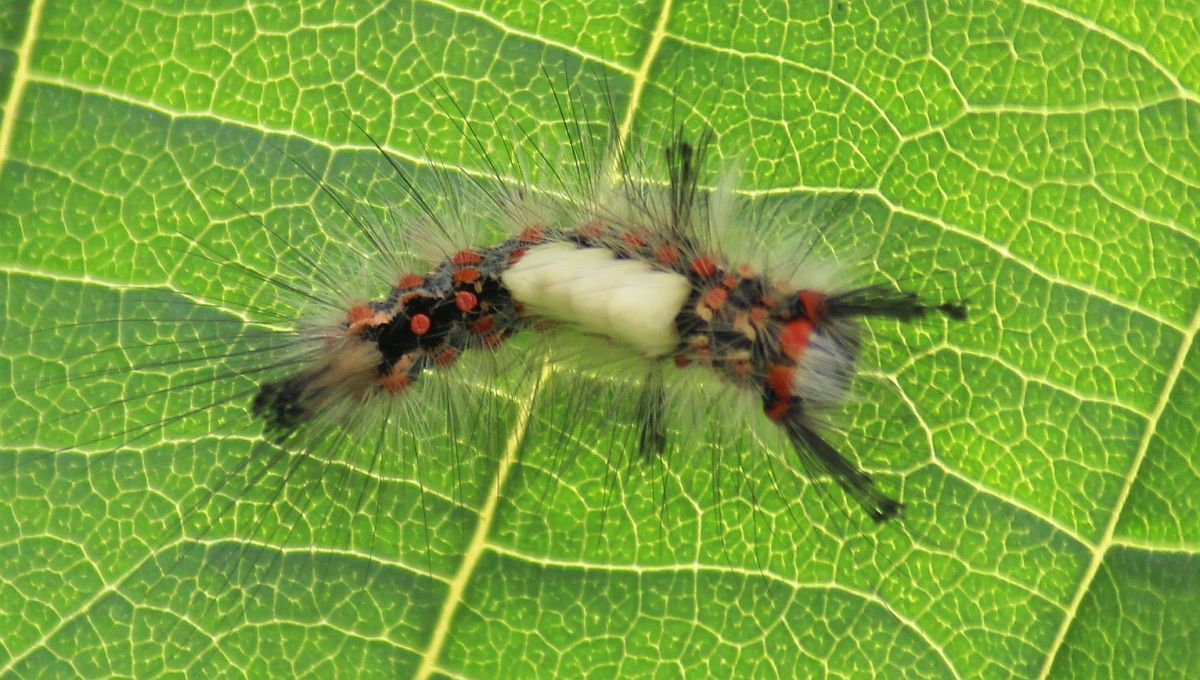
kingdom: Animalia
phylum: Arthropoda
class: Insecta
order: Lepidoptera
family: Erebidae
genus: Orgyia
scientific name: Orgyia antiqua
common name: Vapourer
